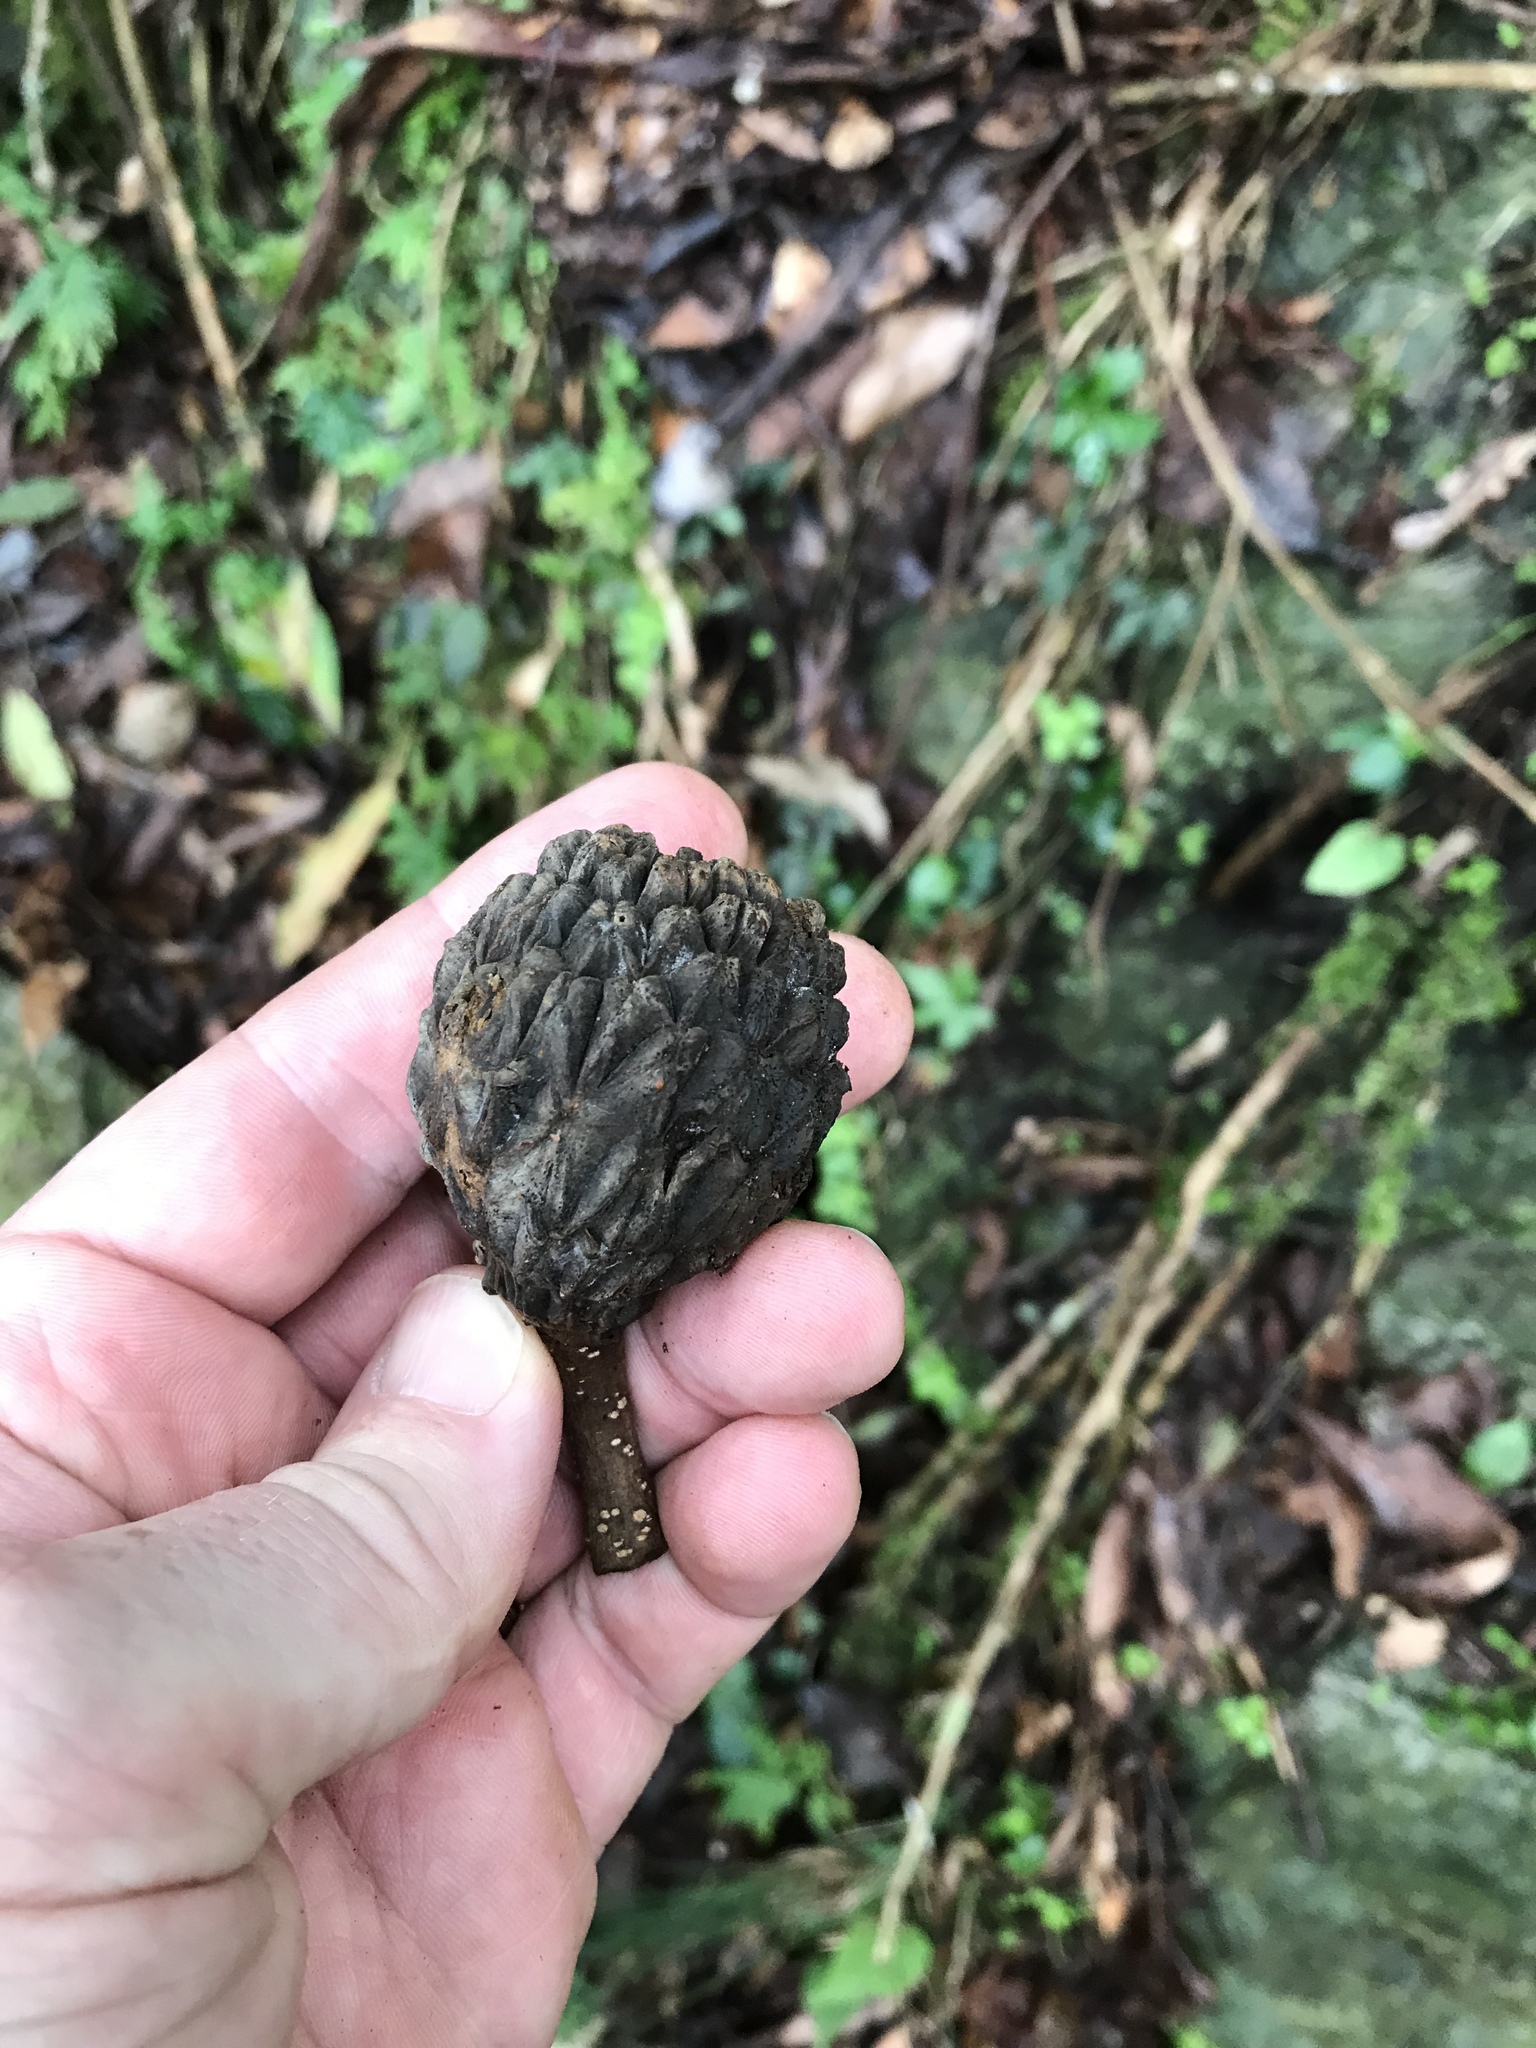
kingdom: Plantae
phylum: Tracheophyta
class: Magnoliopsida
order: Fagales
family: Fagaceae
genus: Lithocarpus
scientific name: Lithocarpus amygdalifolius
